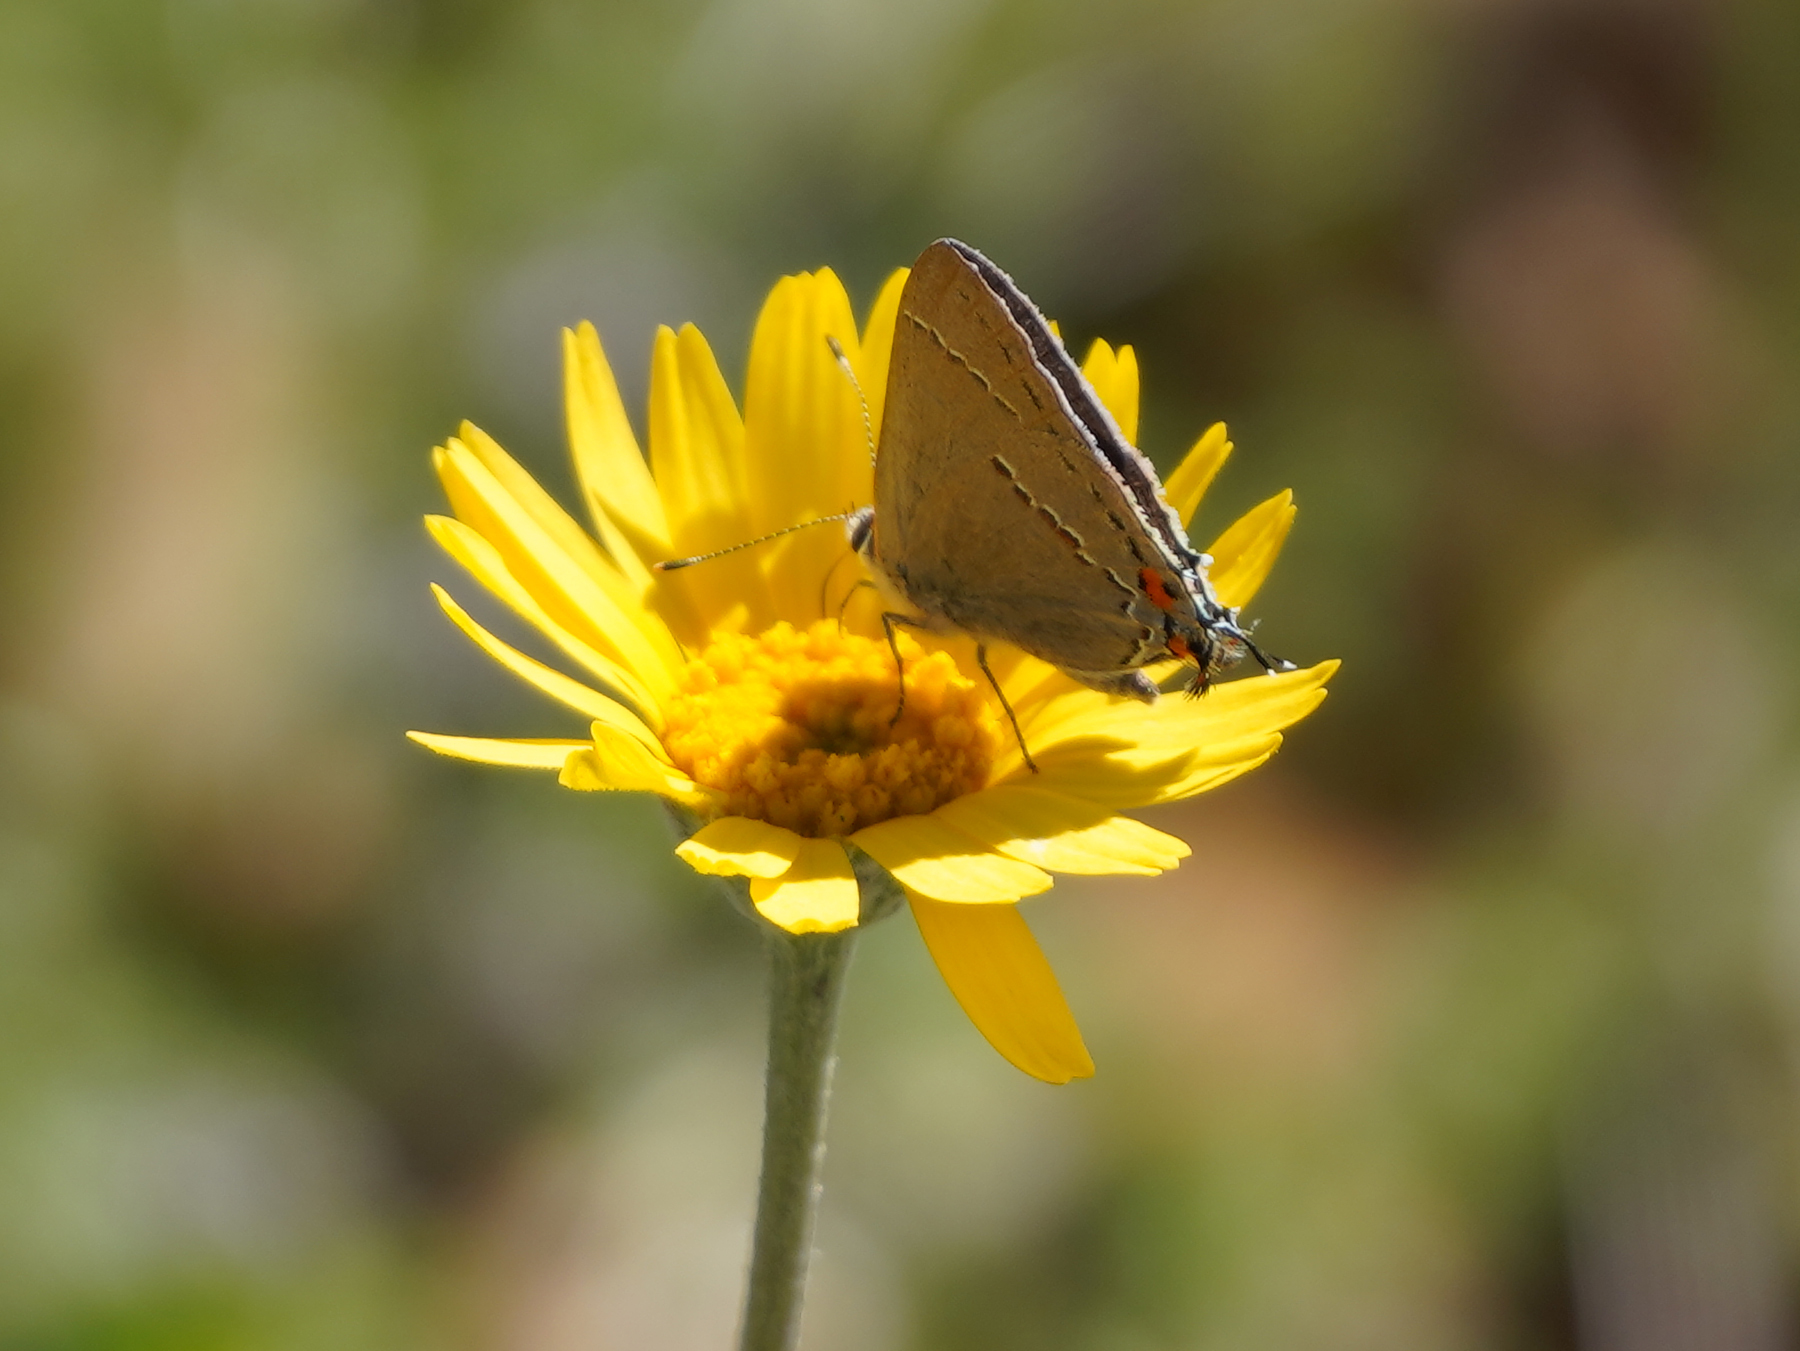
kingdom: Animalia
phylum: Arthropoda
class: Insecta
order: Lepidoptera
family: Lycaenidae
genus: Strymon
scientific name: Strymon melinus
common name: Gray hairstreak
